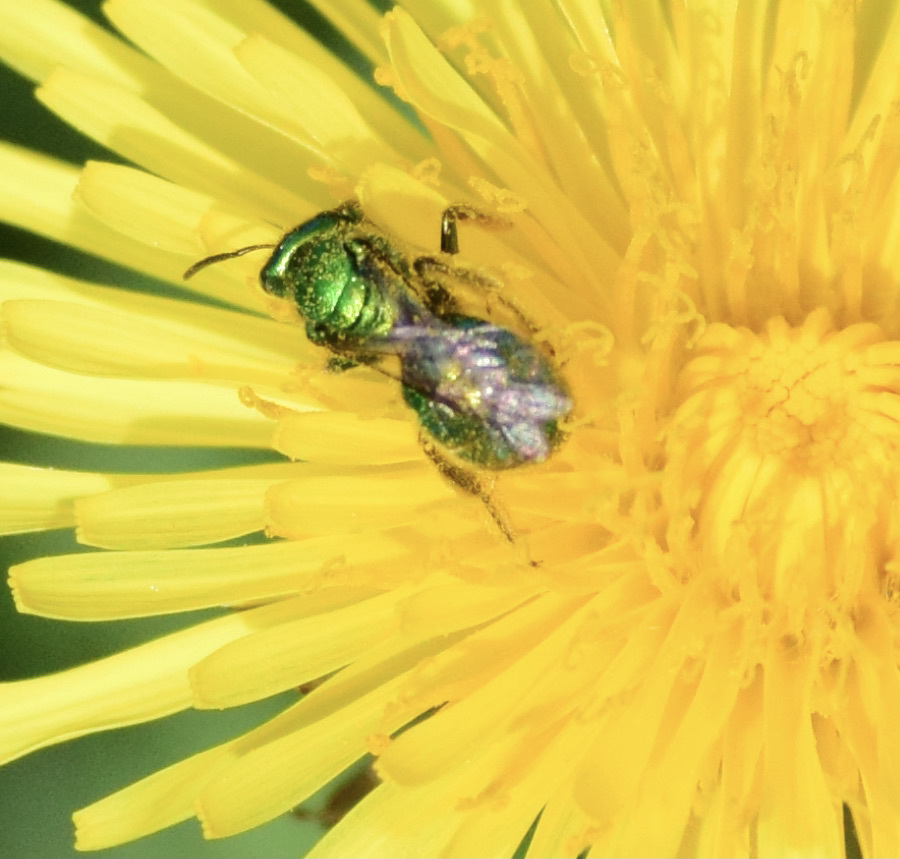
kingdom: Animalia
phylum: Arthropoda
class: Insecta
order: Hymenoptera
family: Halictidae
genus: Augochloropsis
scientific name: Augochloropsis viridula
